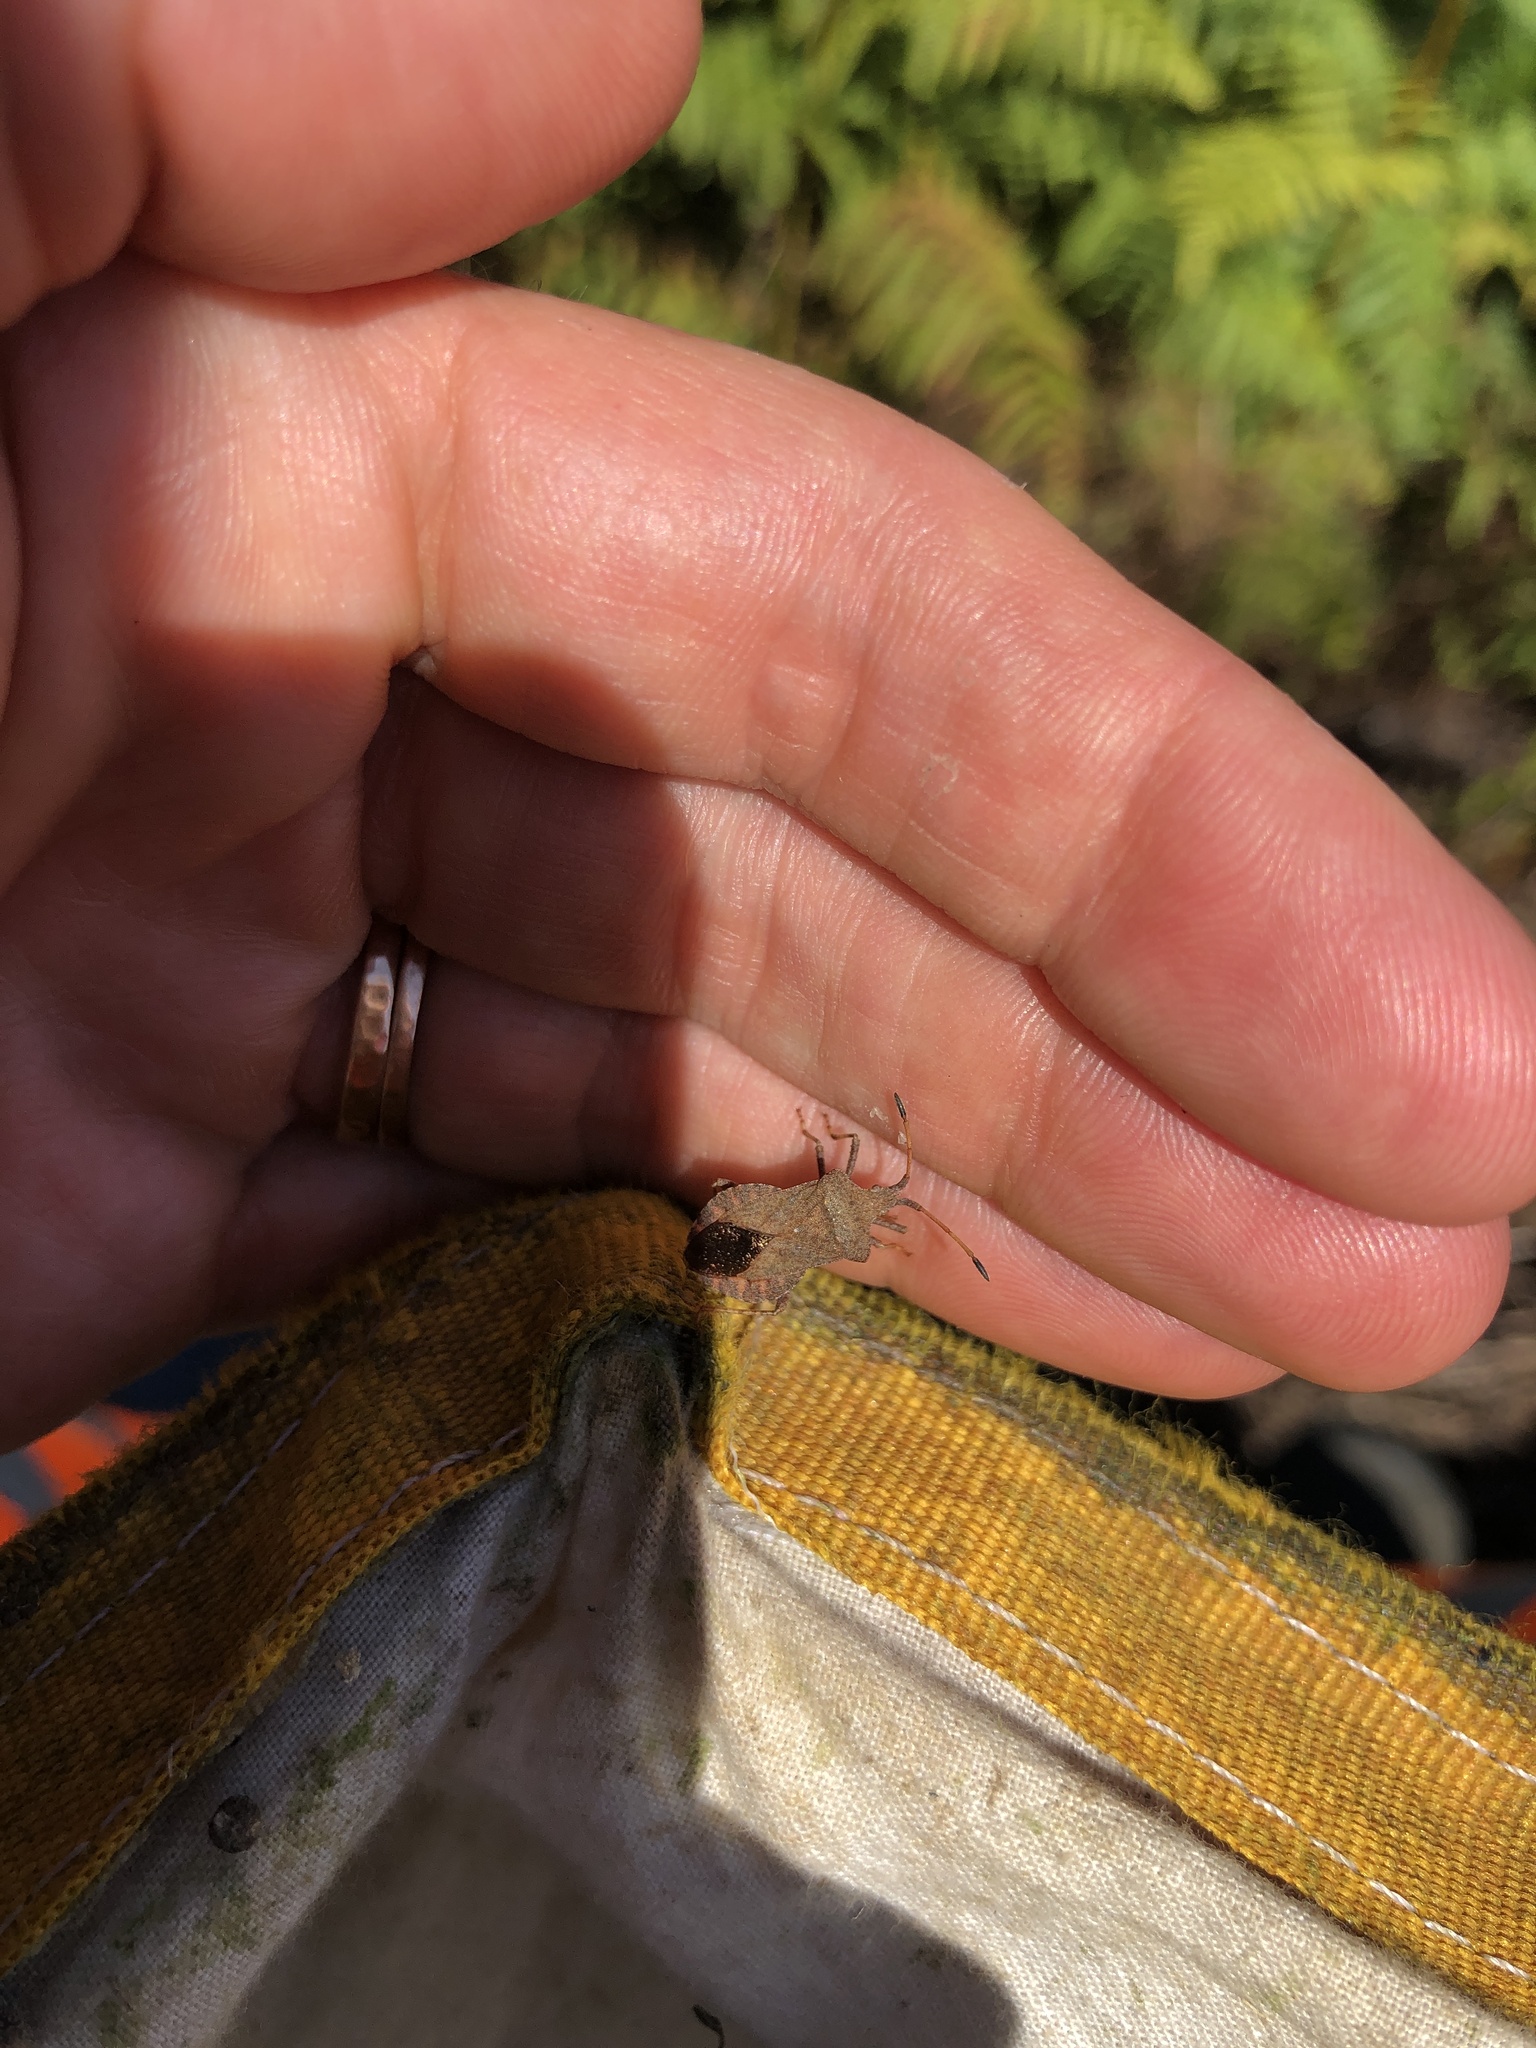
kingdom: Animalia
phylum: Arthropoda
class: Insecta
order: Hemiptera
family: Coreidae
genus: Coreus
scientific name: Coreus marginatus
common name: Dock bug
